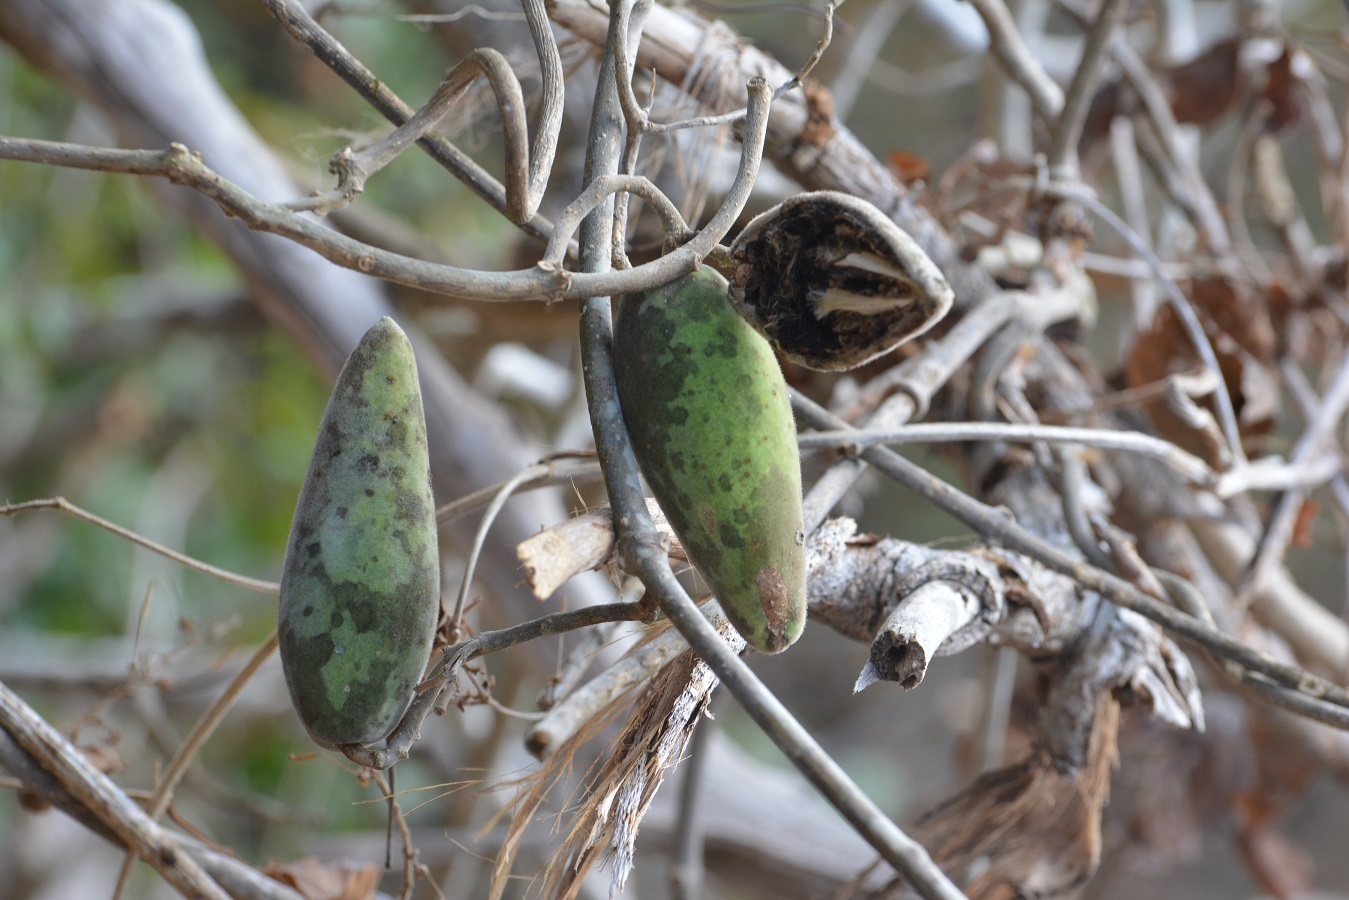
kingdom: Plantae
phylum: Tracheophyta
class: Magnoliopsida
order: Gentianales
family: Apocynaceae
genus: Ruehssia
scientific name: Ruehssia gualanensis
